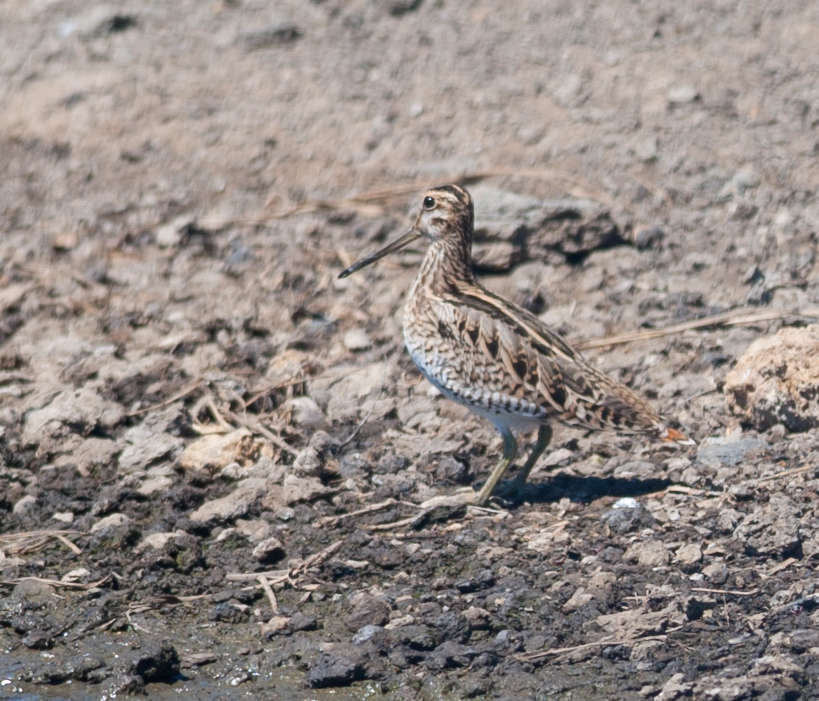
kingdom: Animalia
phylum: Chordata
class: Aves
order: Charadriiformes
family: Scolopacidae
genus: Gallinago
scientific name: Gallinago hardwickii
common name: Latham's snipe
